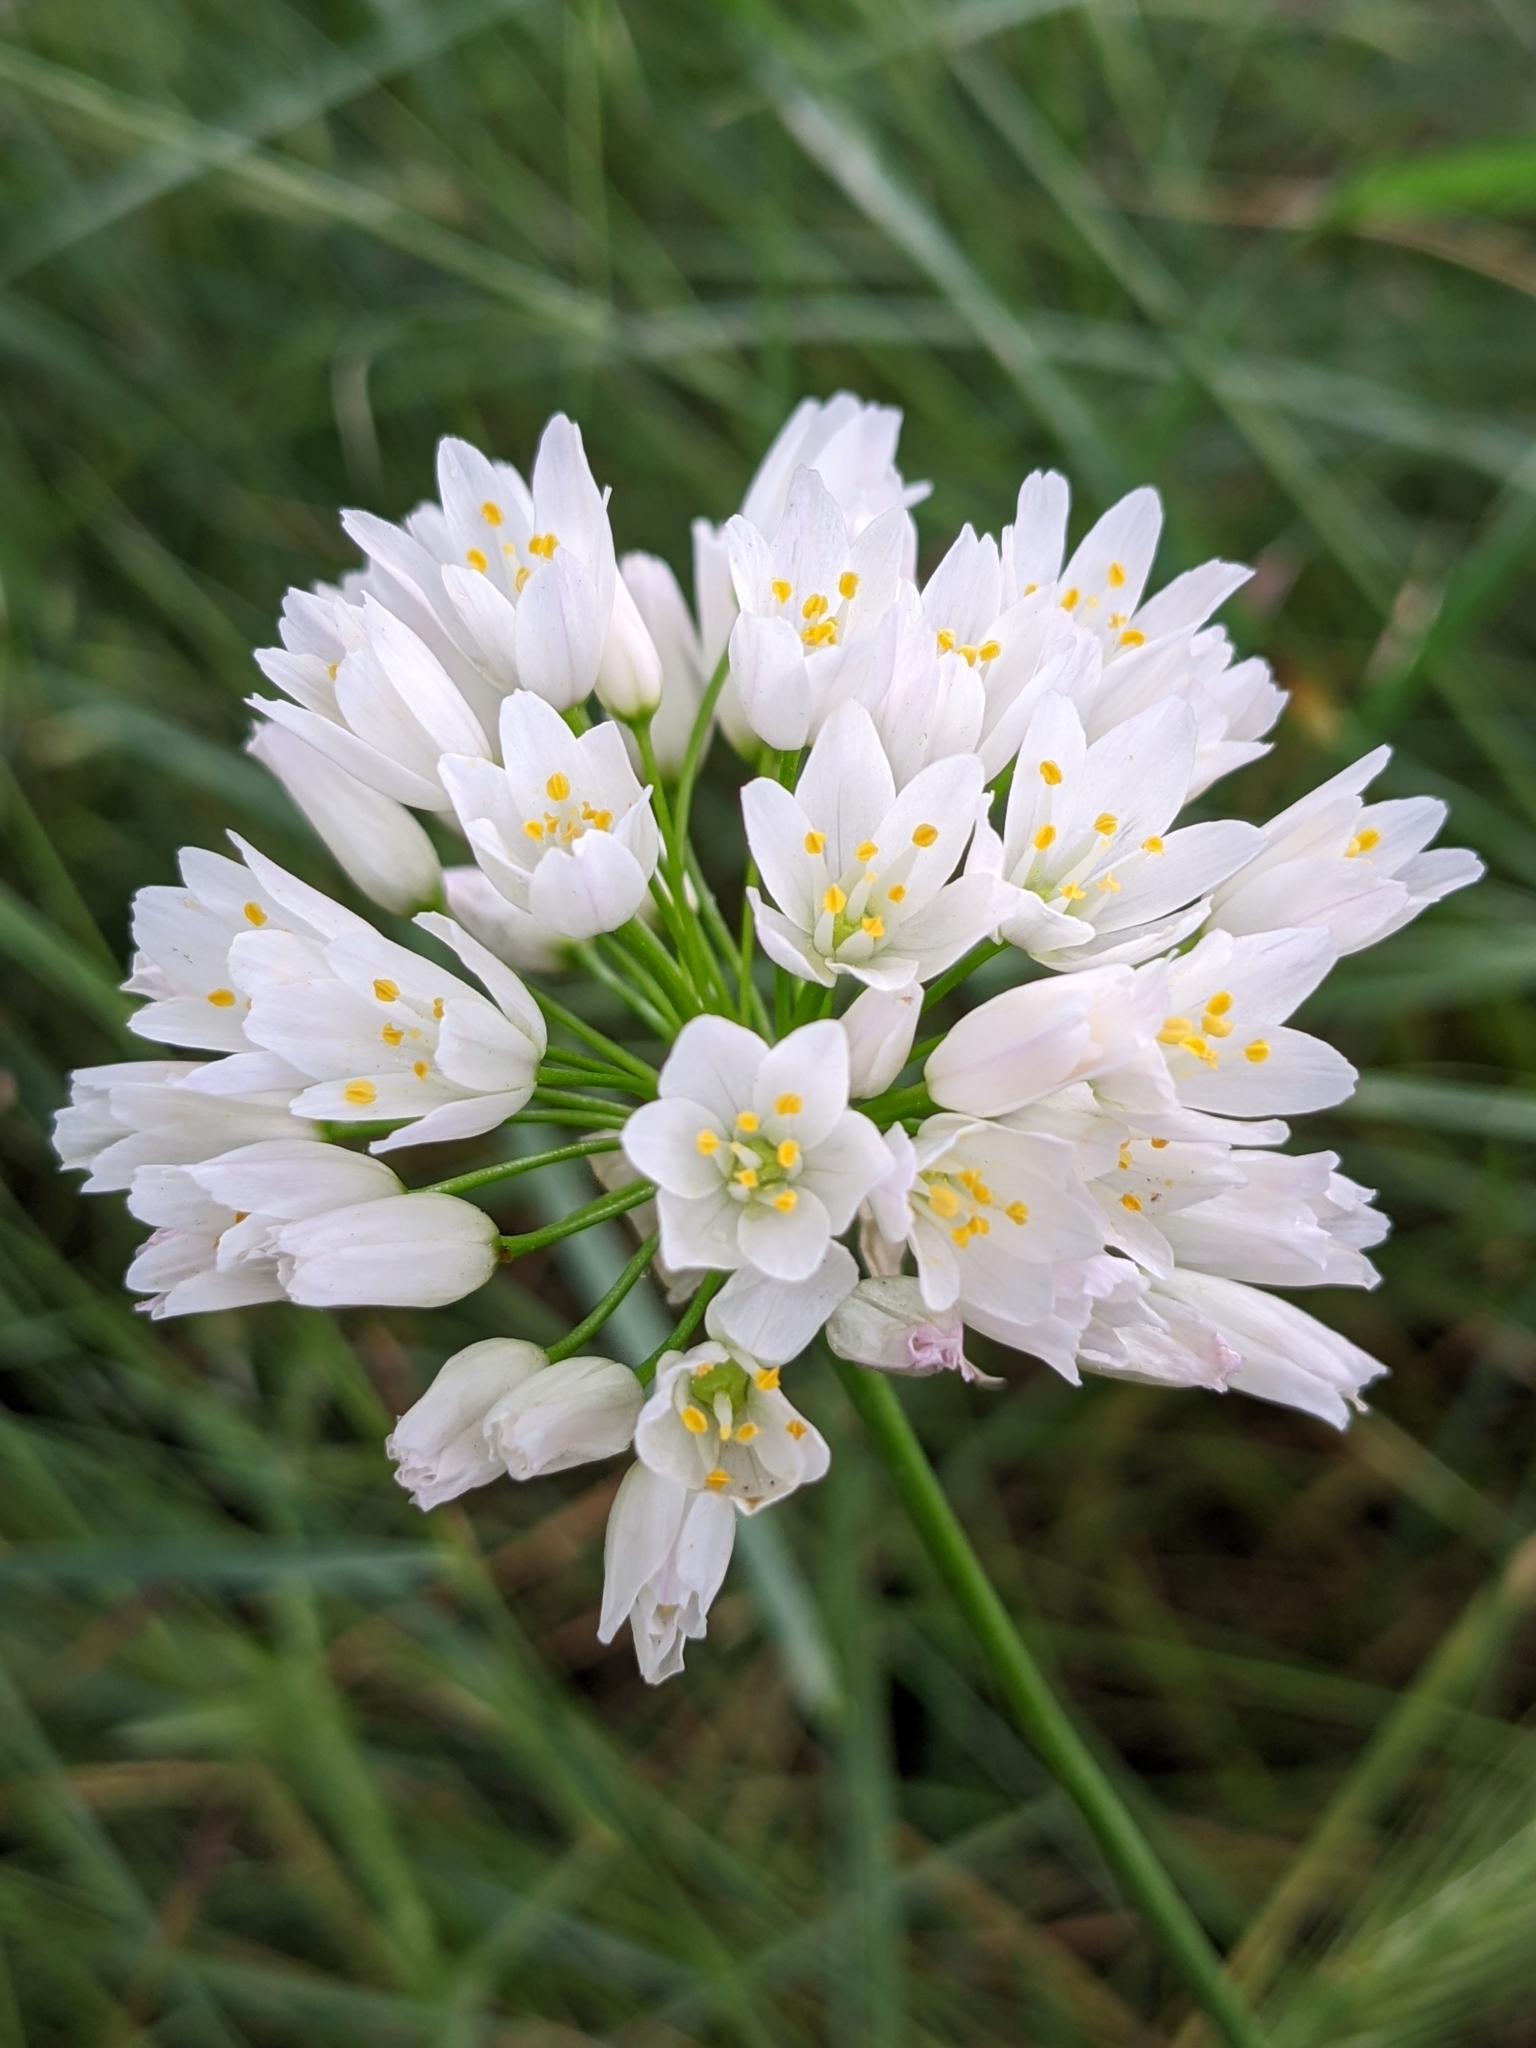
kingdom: Plantae
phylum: Tracheophyta
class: Liliopsida
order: Asparagales
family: Amaryllidaceae
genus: Allium
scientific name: Allium roseum
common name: Rosy garlic
